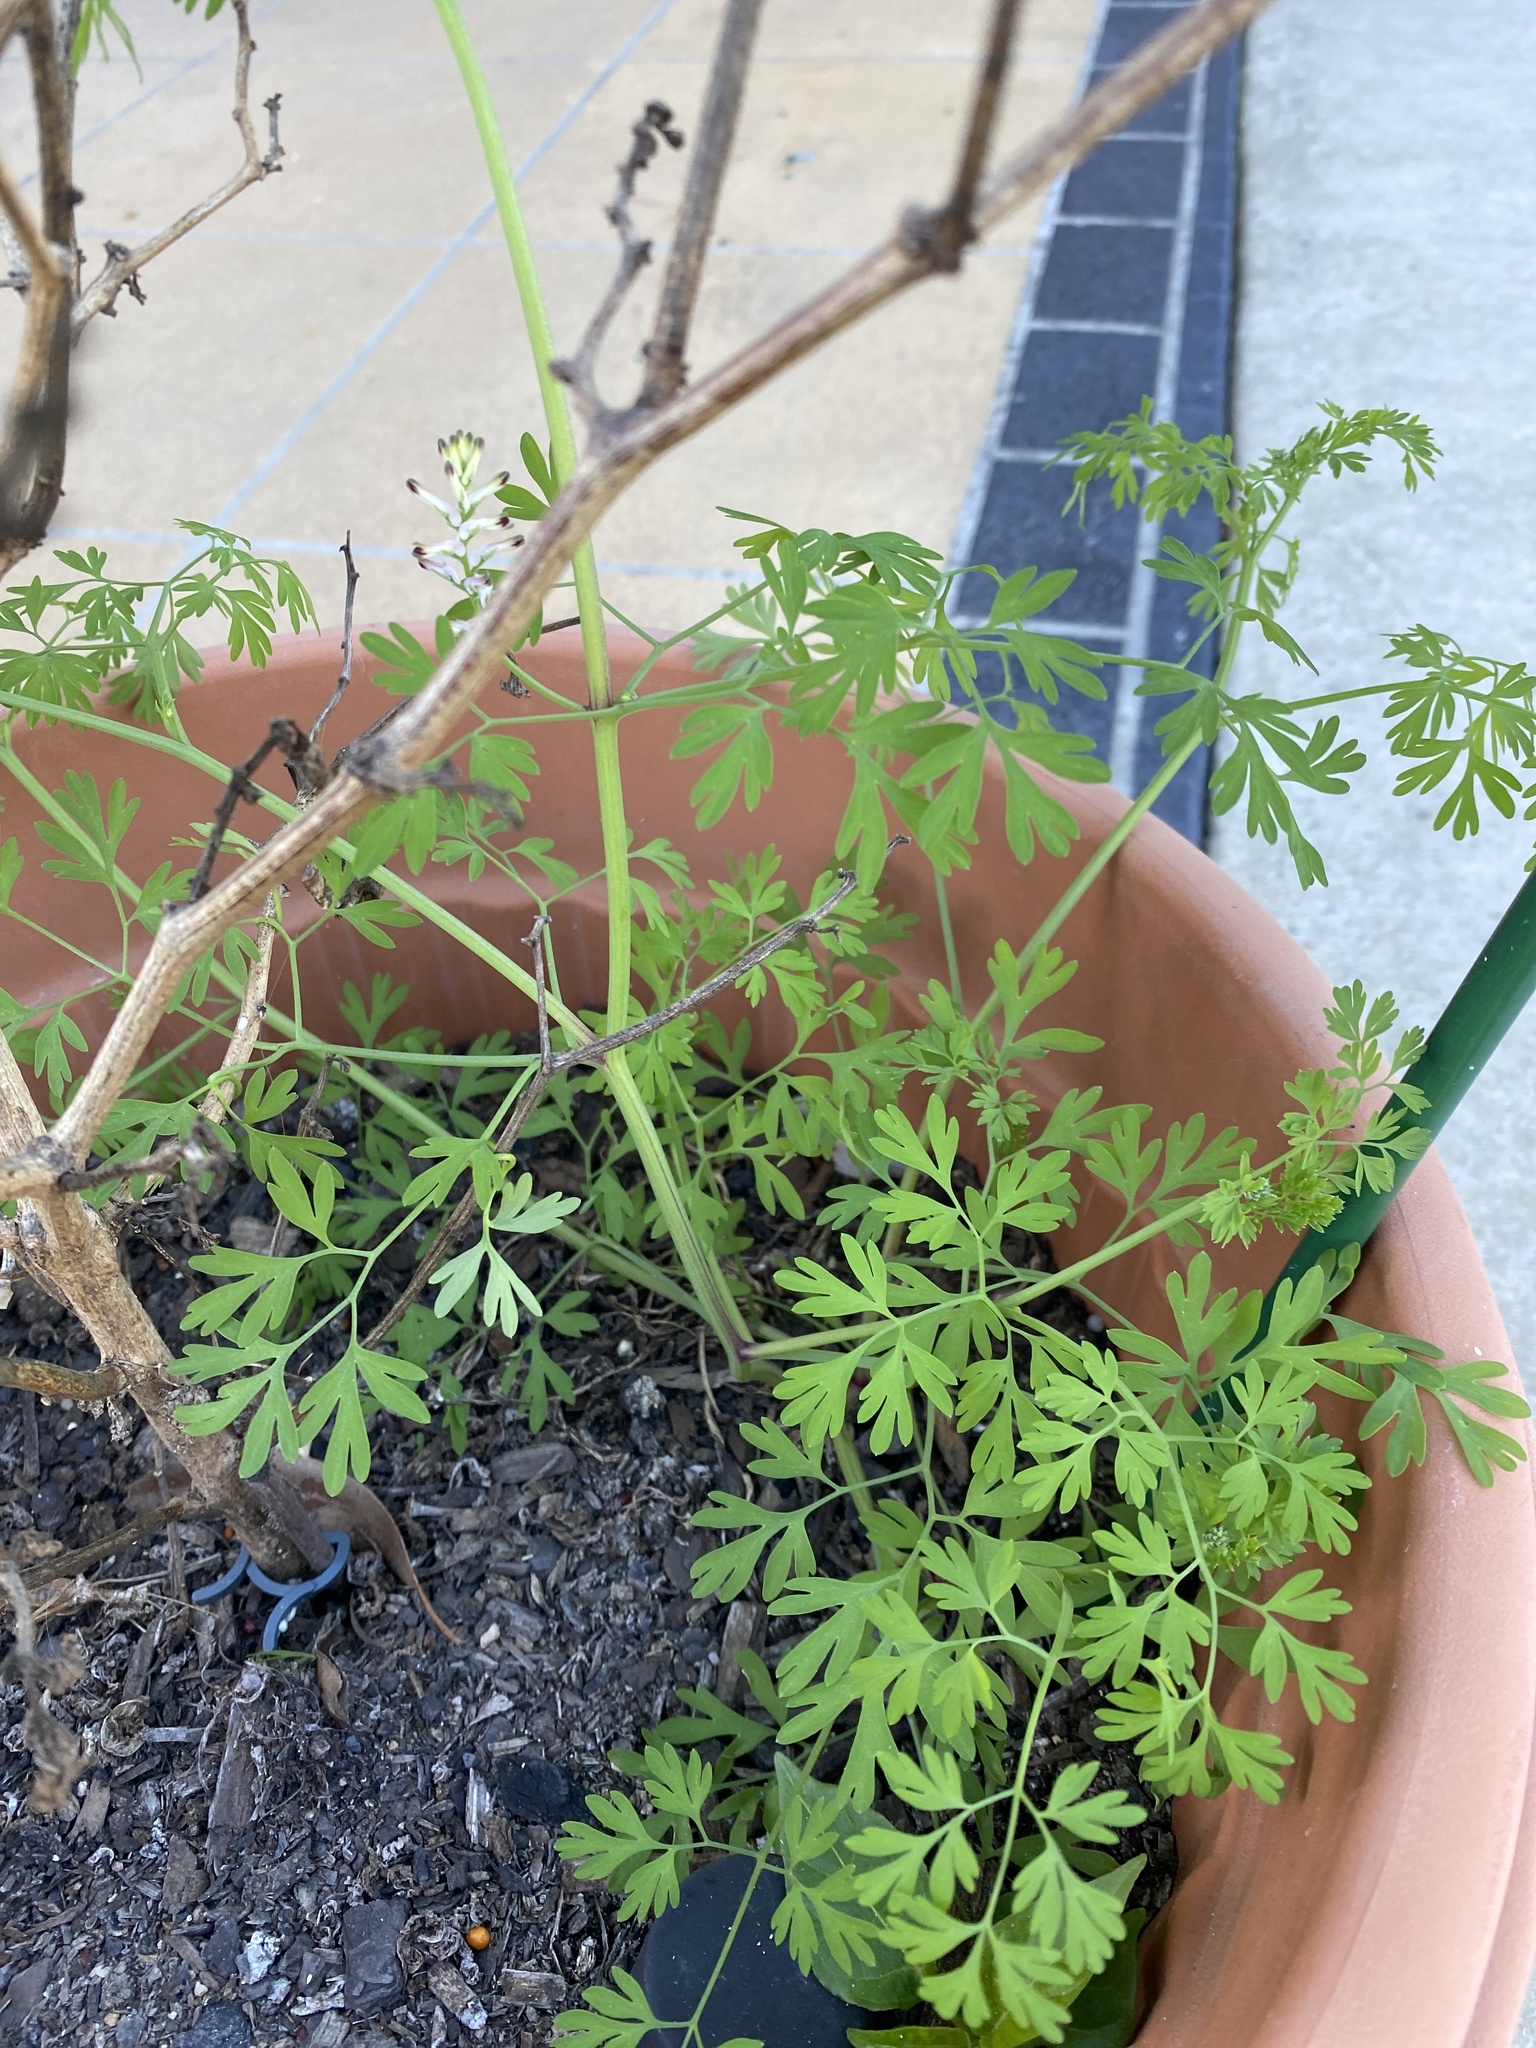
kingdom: Plantae
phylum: Tracheophyta
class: Magnoliopsida
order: Ranunculales
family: Papaveraceae
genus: Fumaria
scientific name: Fumaria capreolata
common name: White ramping-fumitory
